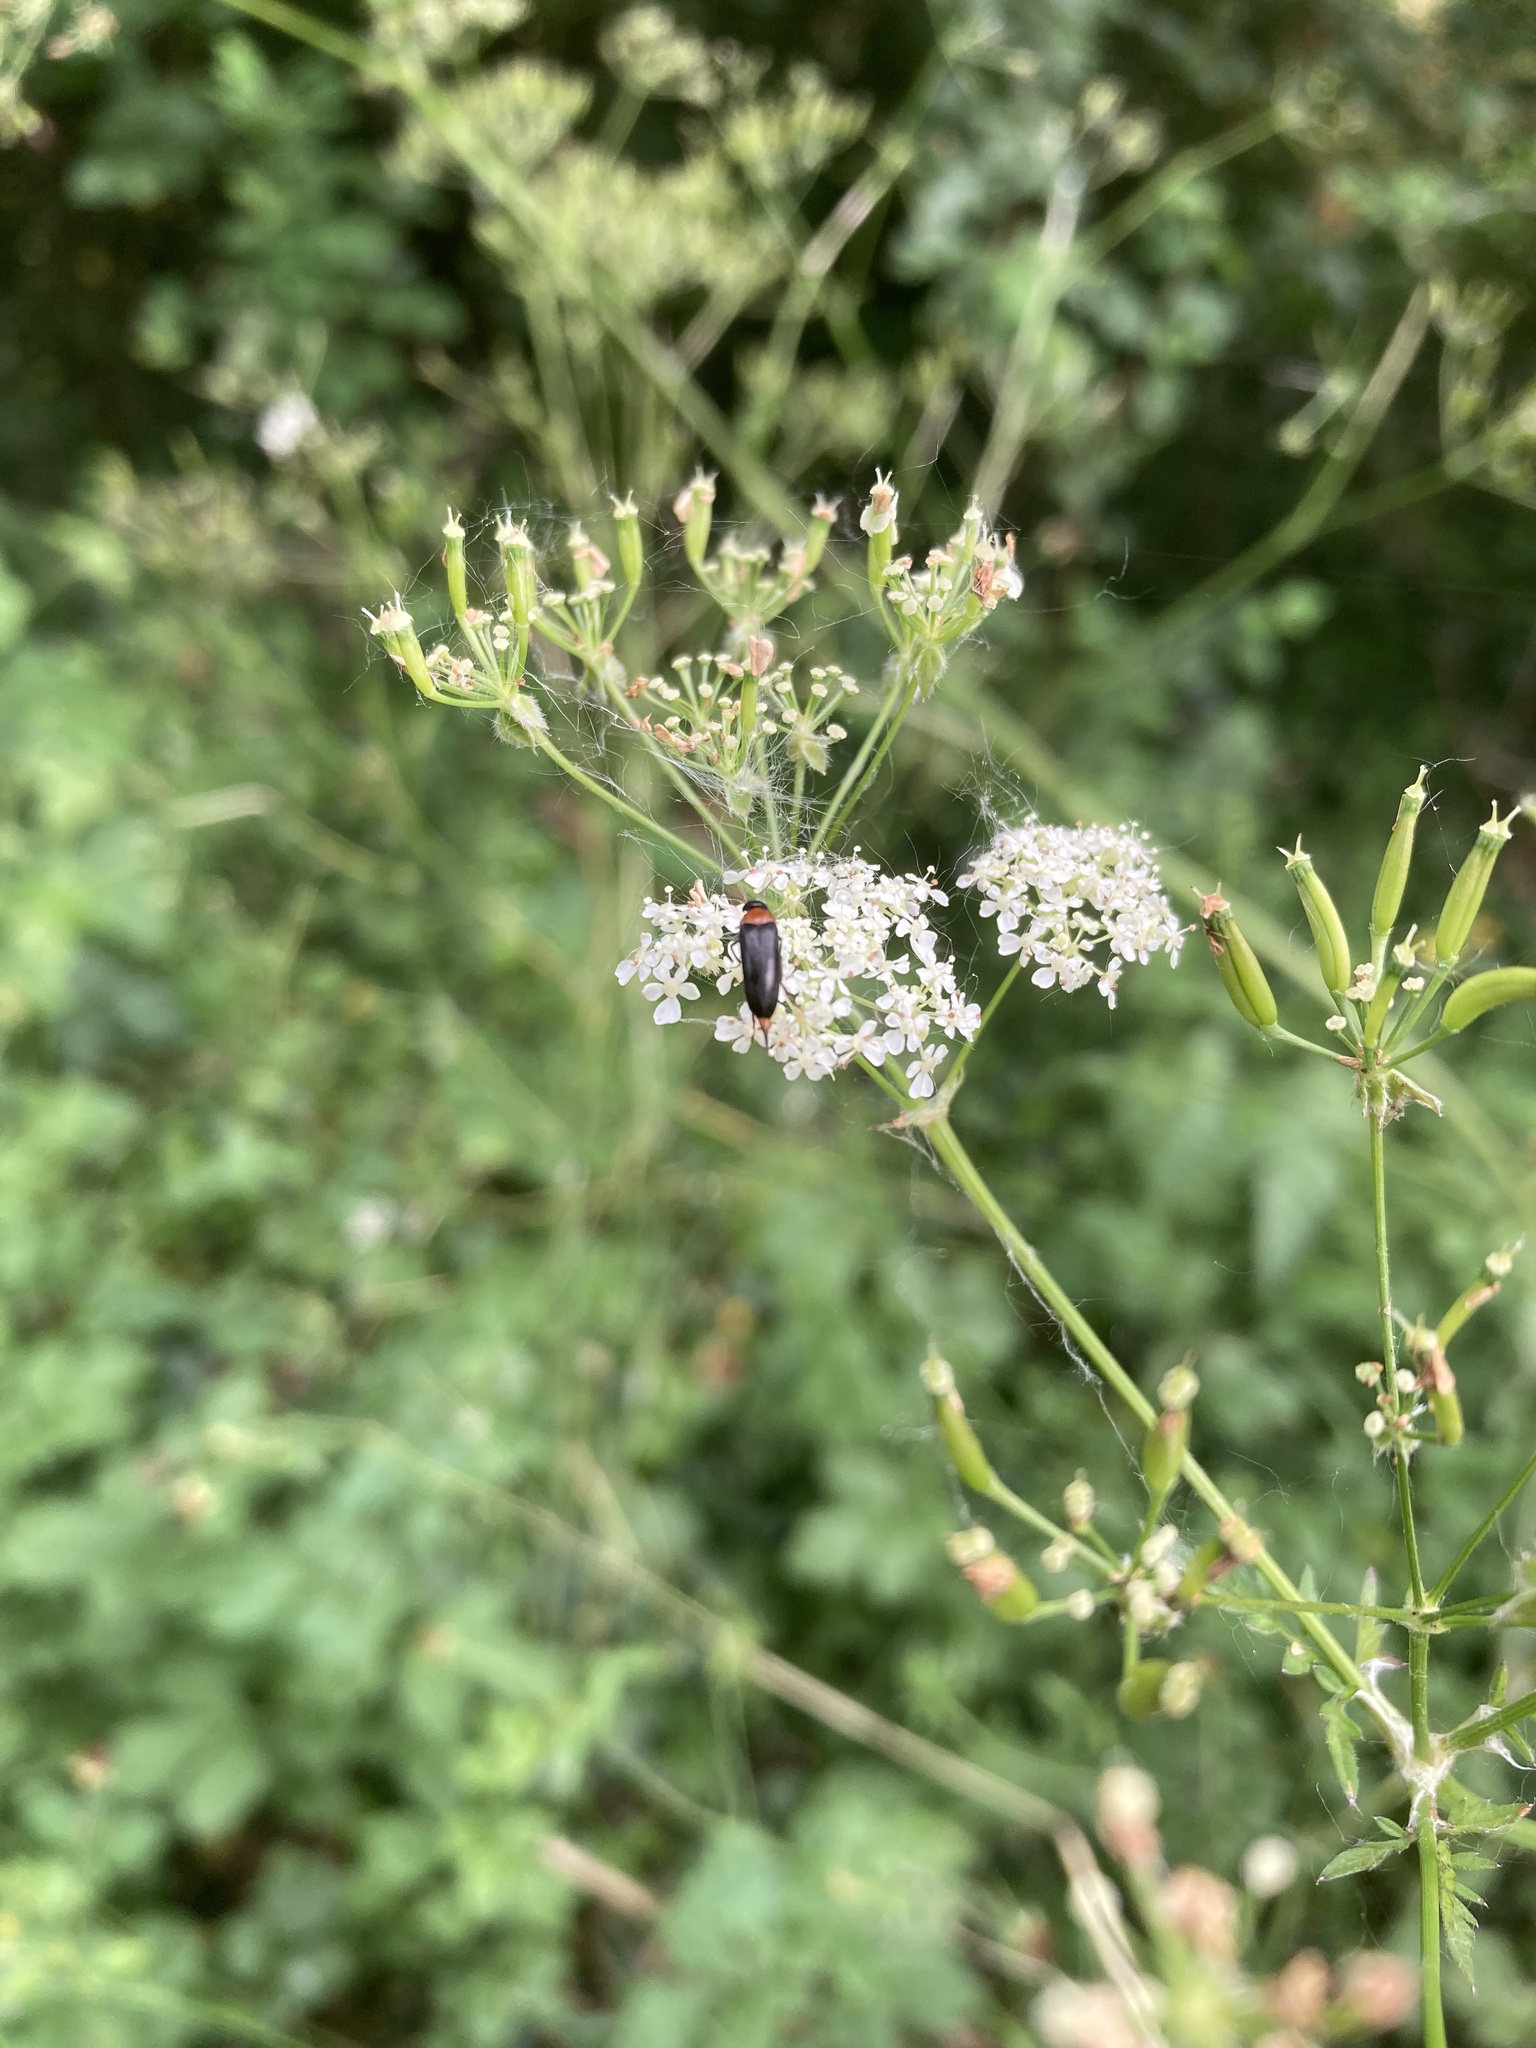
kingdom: Animalia
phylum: Arthropoda
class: Insecta
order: Coleoptera
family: Mordellidae
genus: Mordellochroa
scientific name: Mordellochroa abdominalis
